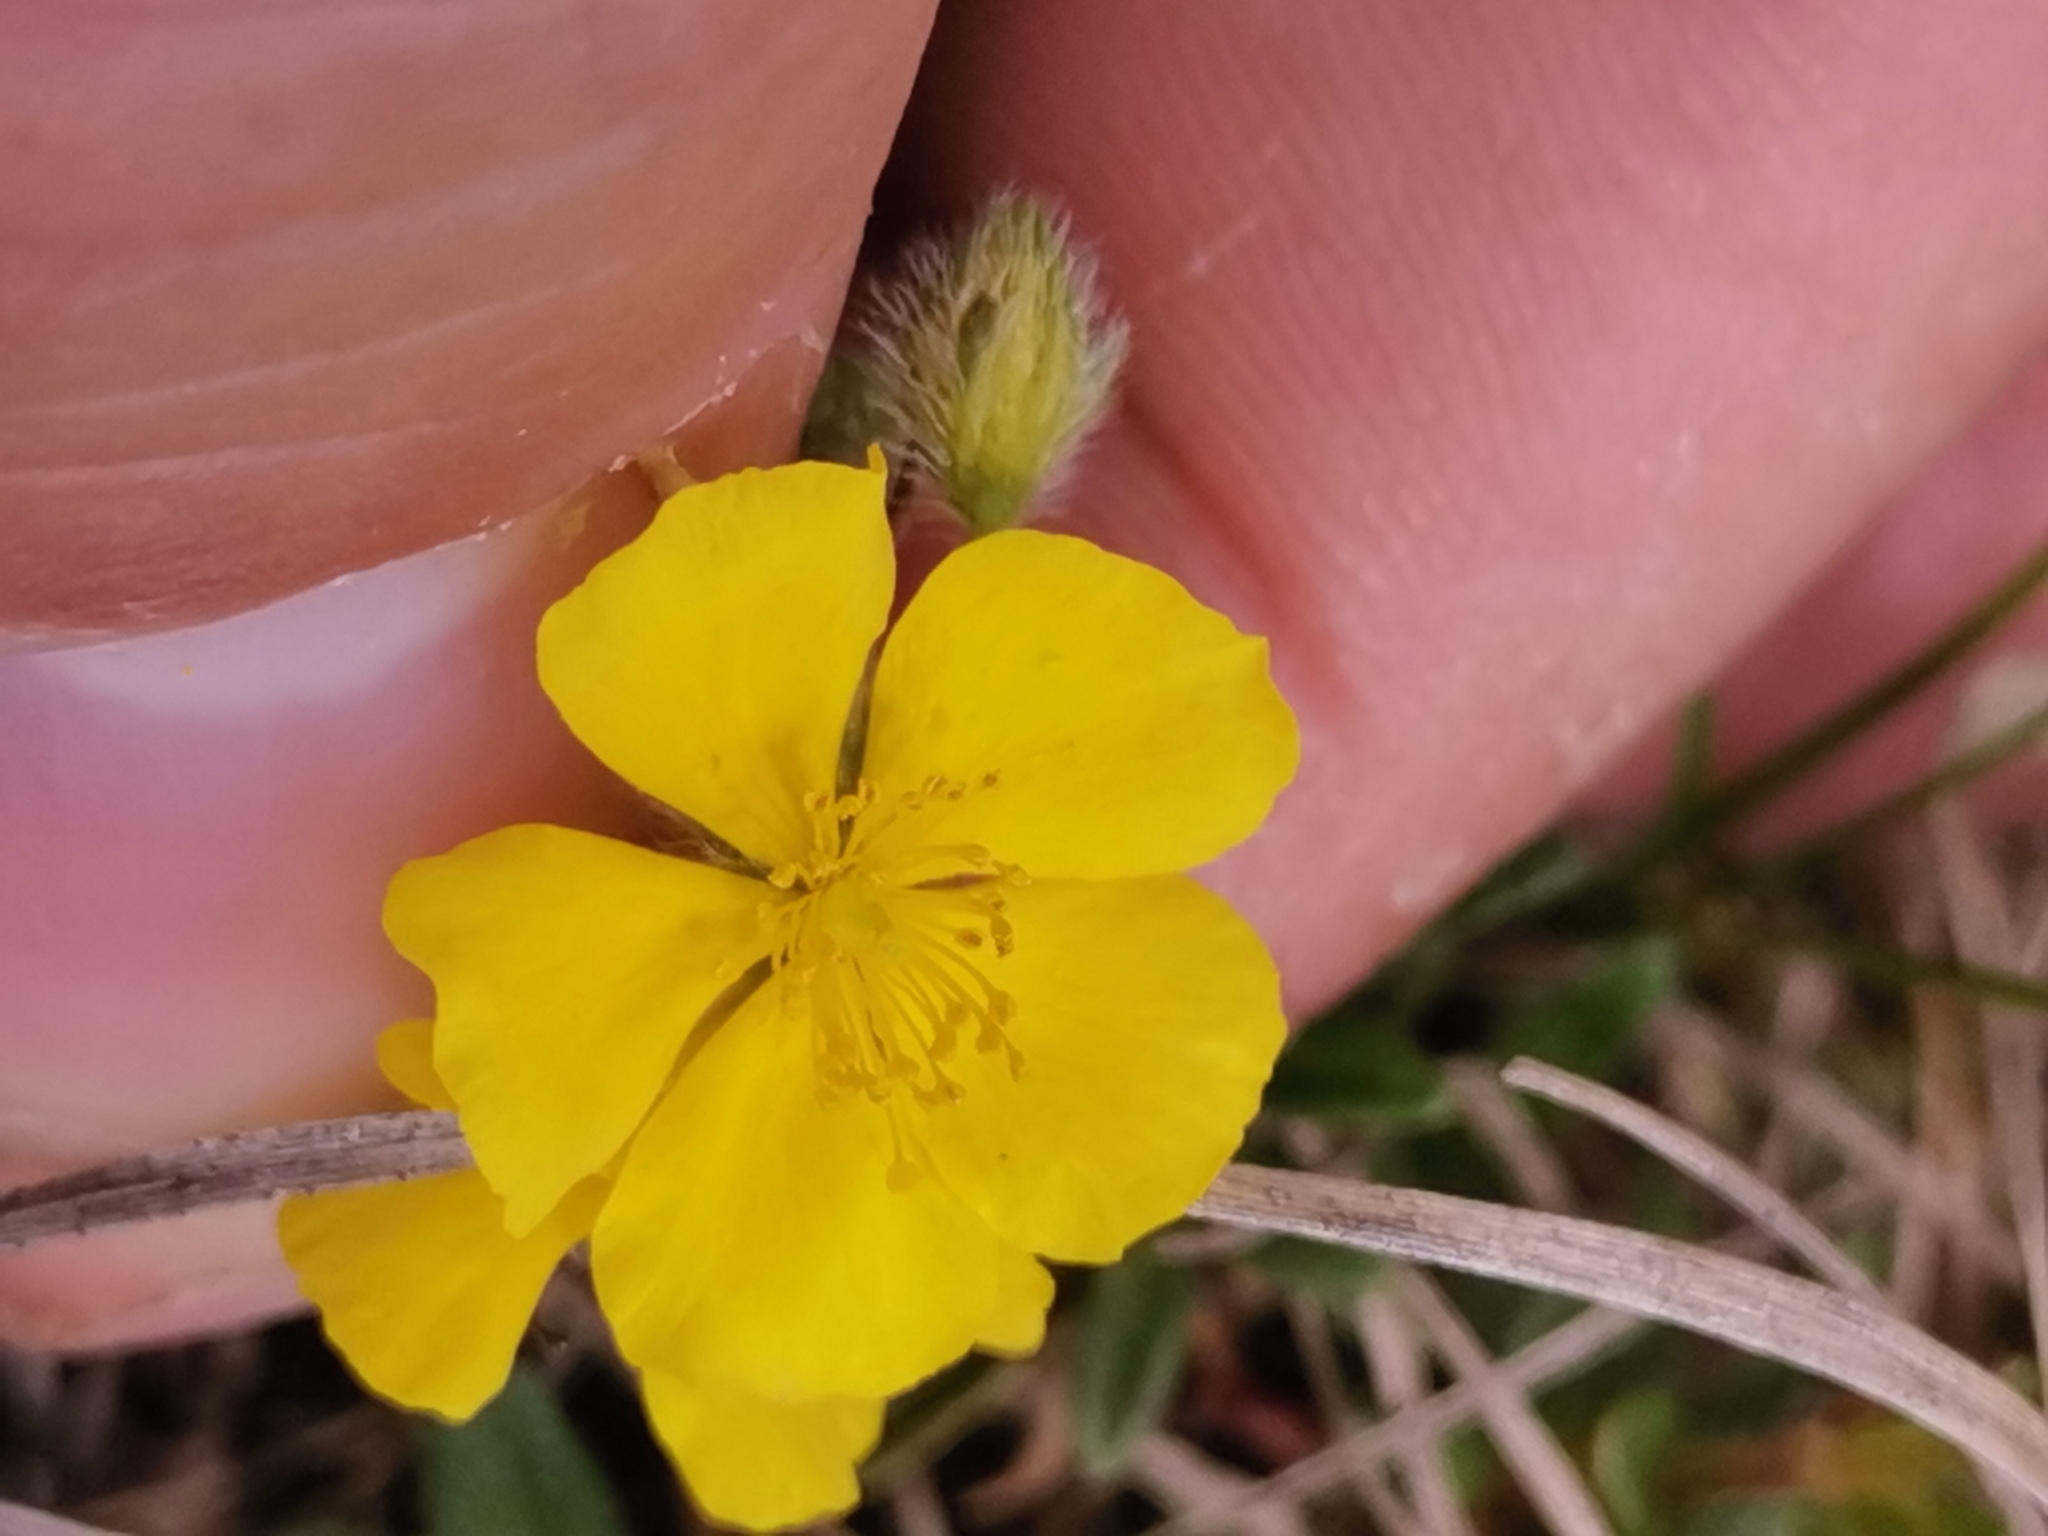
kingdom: Plantae
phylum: Tracheophyta
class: Magnoliopsida
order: Malvales
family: Cistaceae
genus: Helianthemum
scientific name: Helianthemum alpestre
